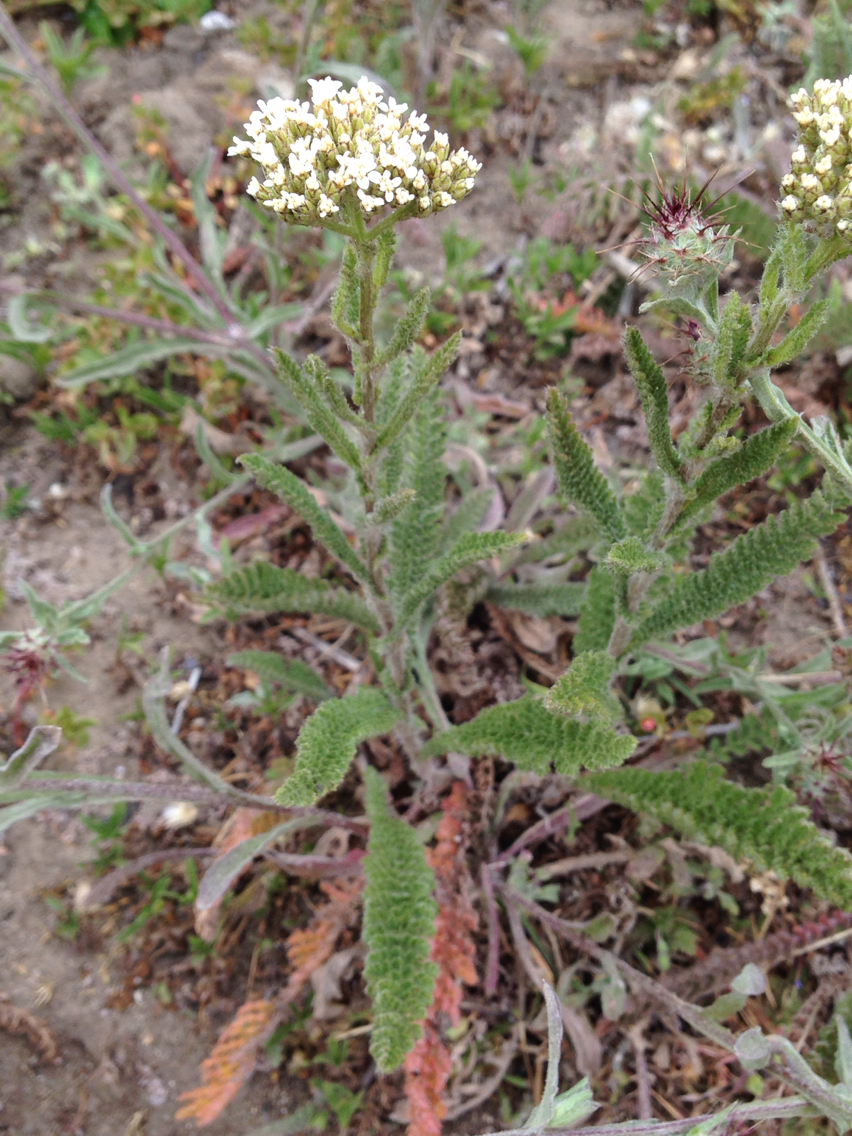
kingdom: Plantae
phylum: Tracheophyta
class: Magnoliopsida
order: Asterales
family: Asteraceae
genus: Achillea
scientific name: Achillea millefolium
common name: Yarrow
